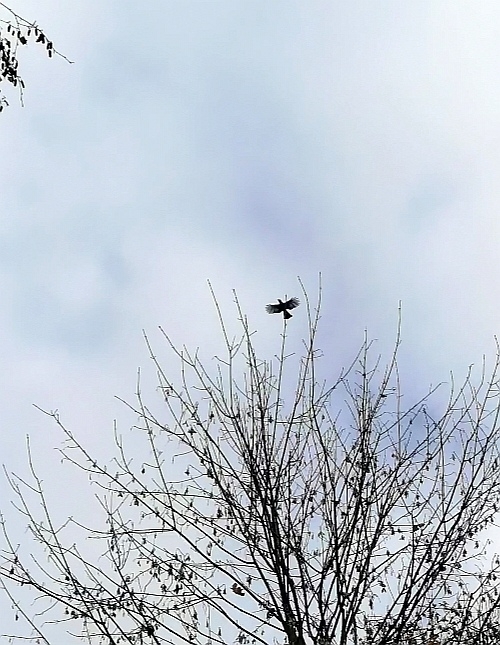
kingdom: Animalia
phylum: Chordata
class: Aves
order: Passeriformes
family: Corvidae
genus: Garrulus
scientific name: Garrulus glandarius
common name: Eurasian jay
